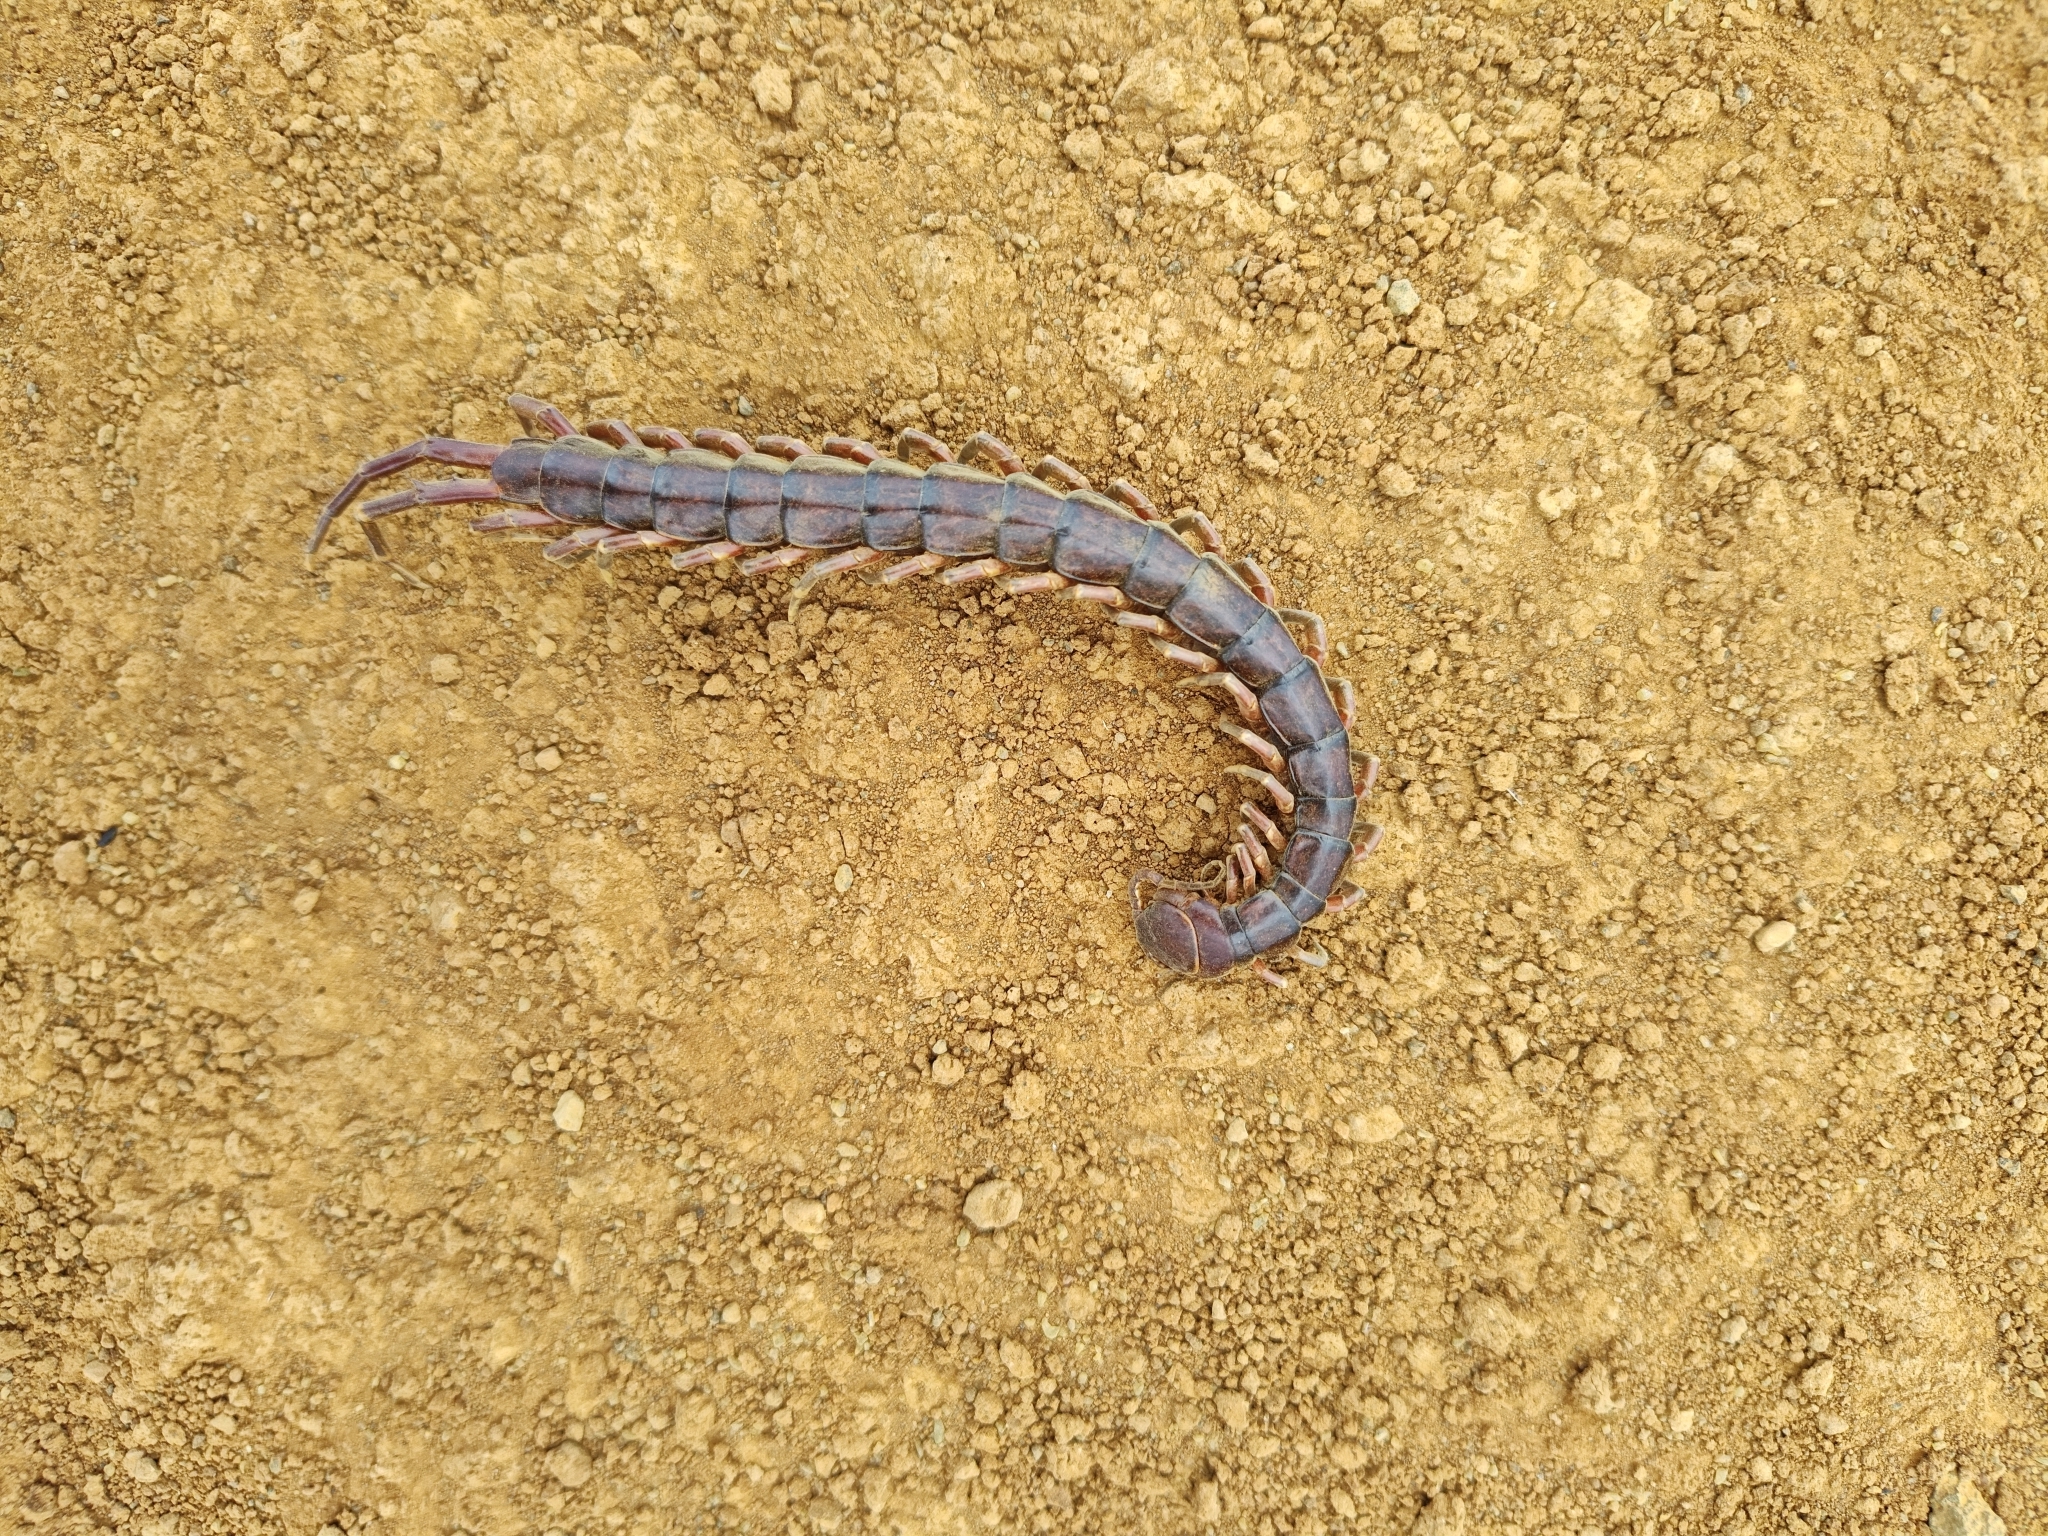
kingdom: Animalia
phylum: Arthropoda
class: Chilopoda
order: Scolopendromorpha
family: Scolopendridae
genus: Scolopendra
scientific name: Scolopendra subspinipes
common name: Centipede
